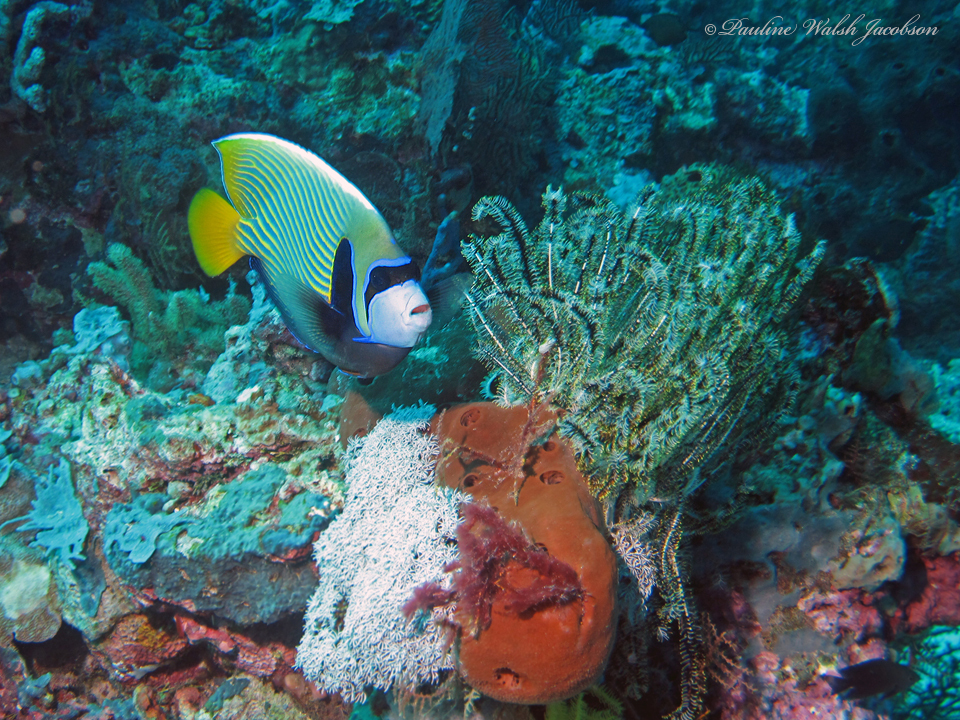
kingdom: Animalia
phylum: Chordata
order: Perciformes
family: Pomacanthidae
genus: Pomacanthus
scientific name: Pomacanthus imperator
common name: Emperor angelfish
